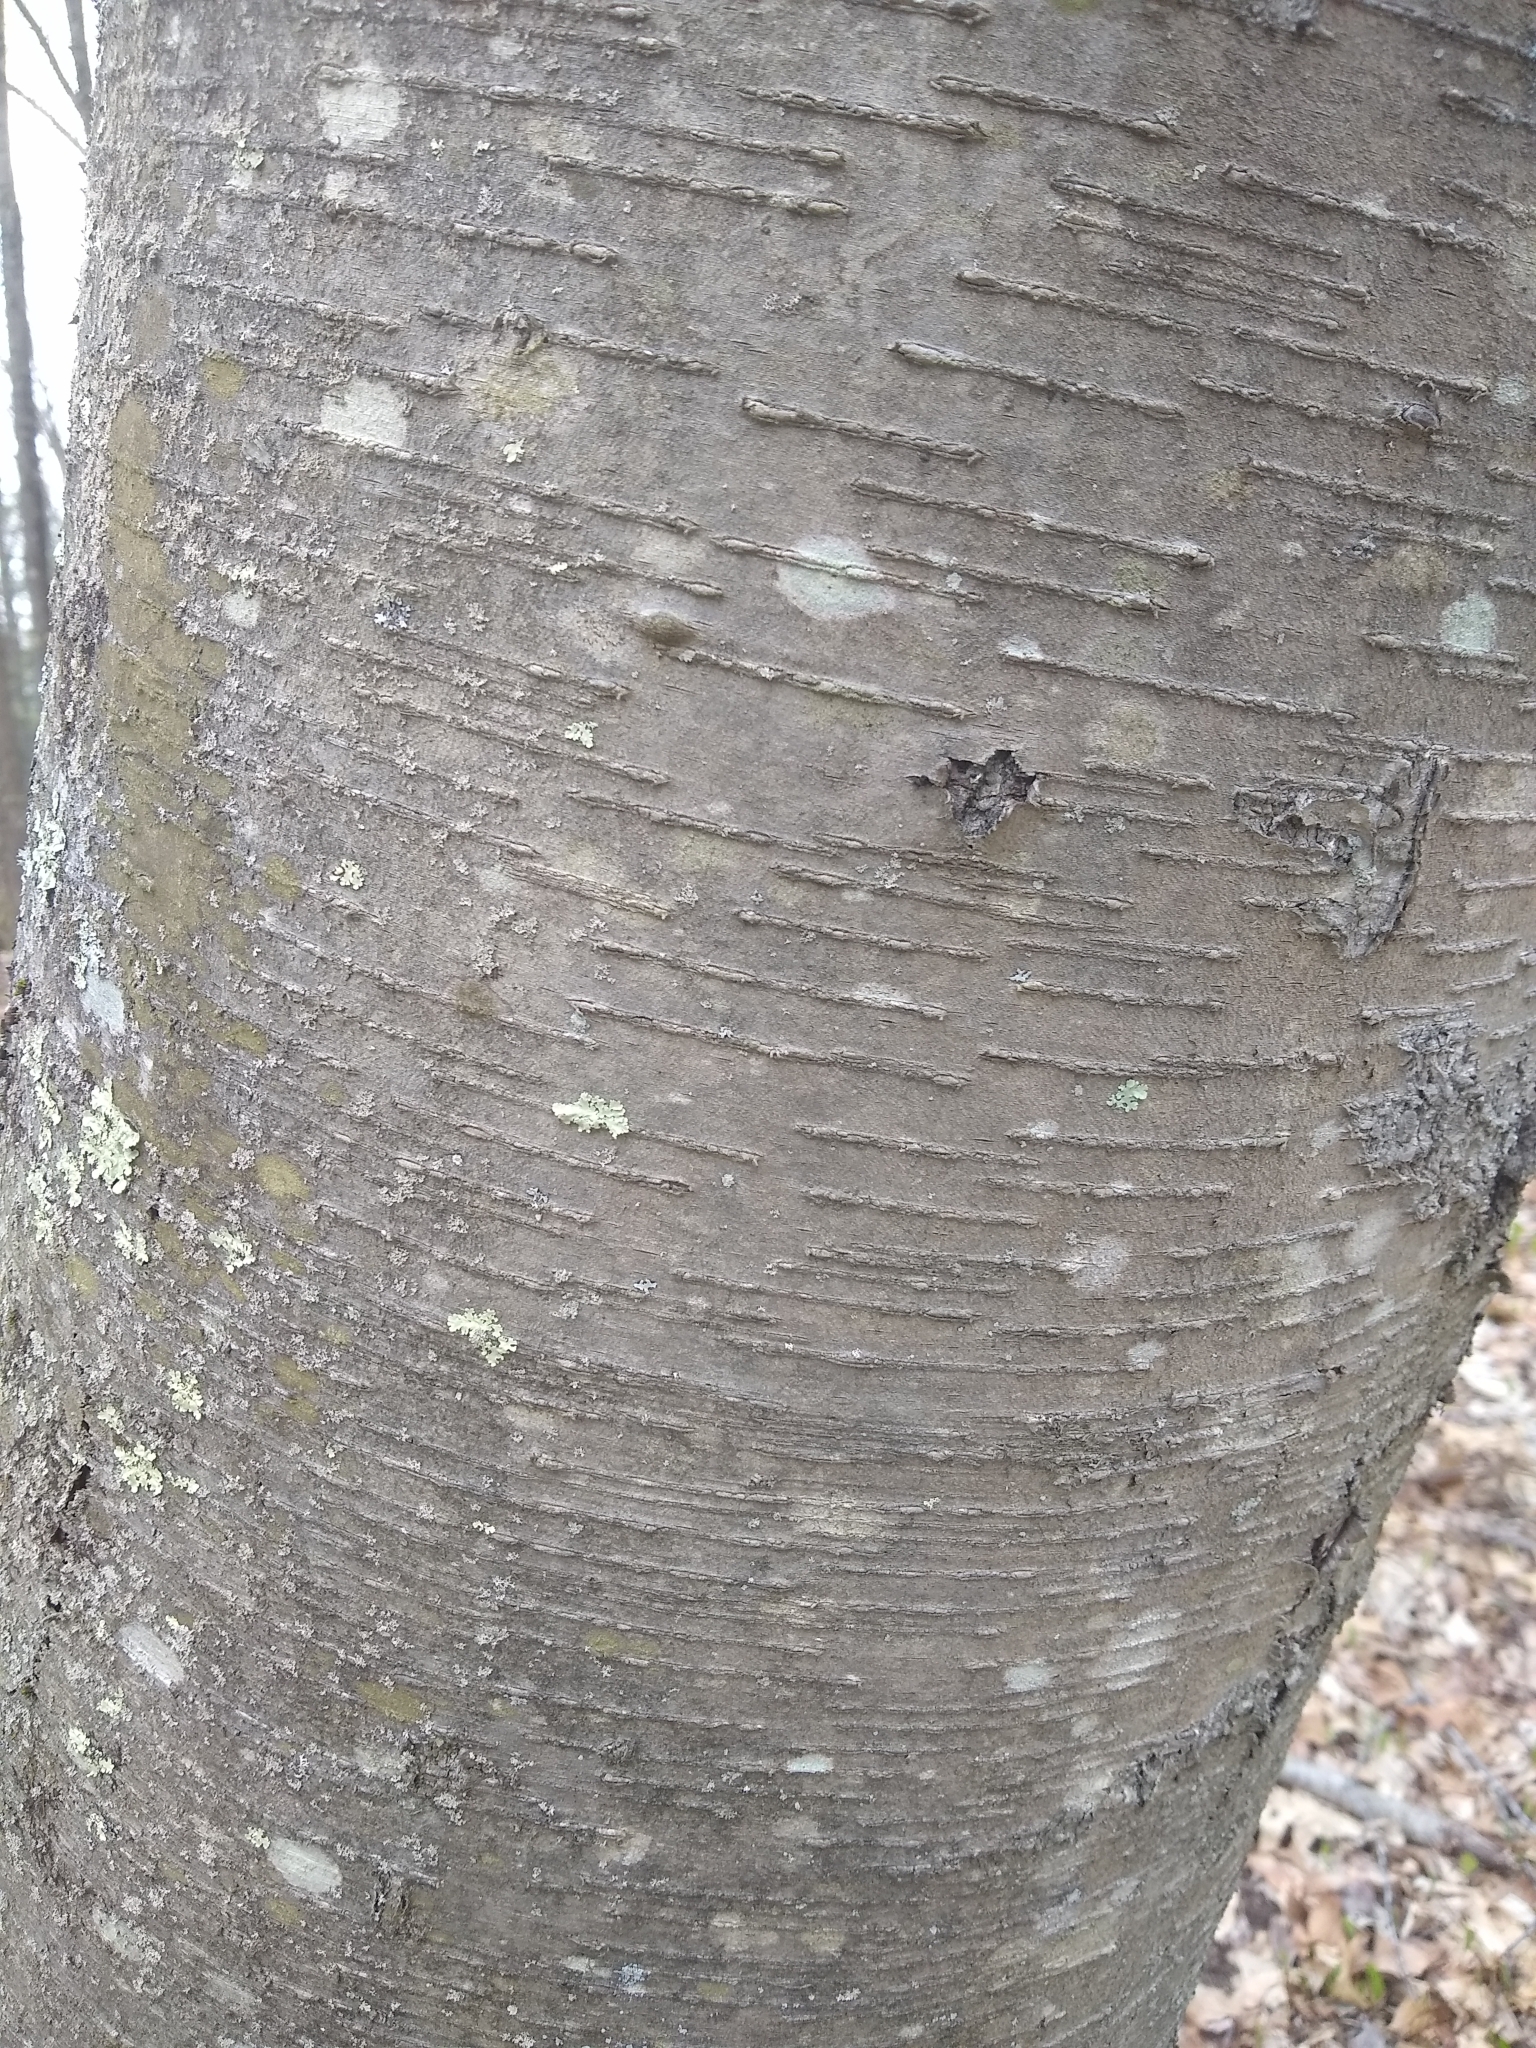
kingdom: Plantae
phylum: Tracheophyta
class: Magnoliopsida
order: Fagales
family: Betulaceae
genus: Betula
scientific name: Betula lenta
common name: Black birch
